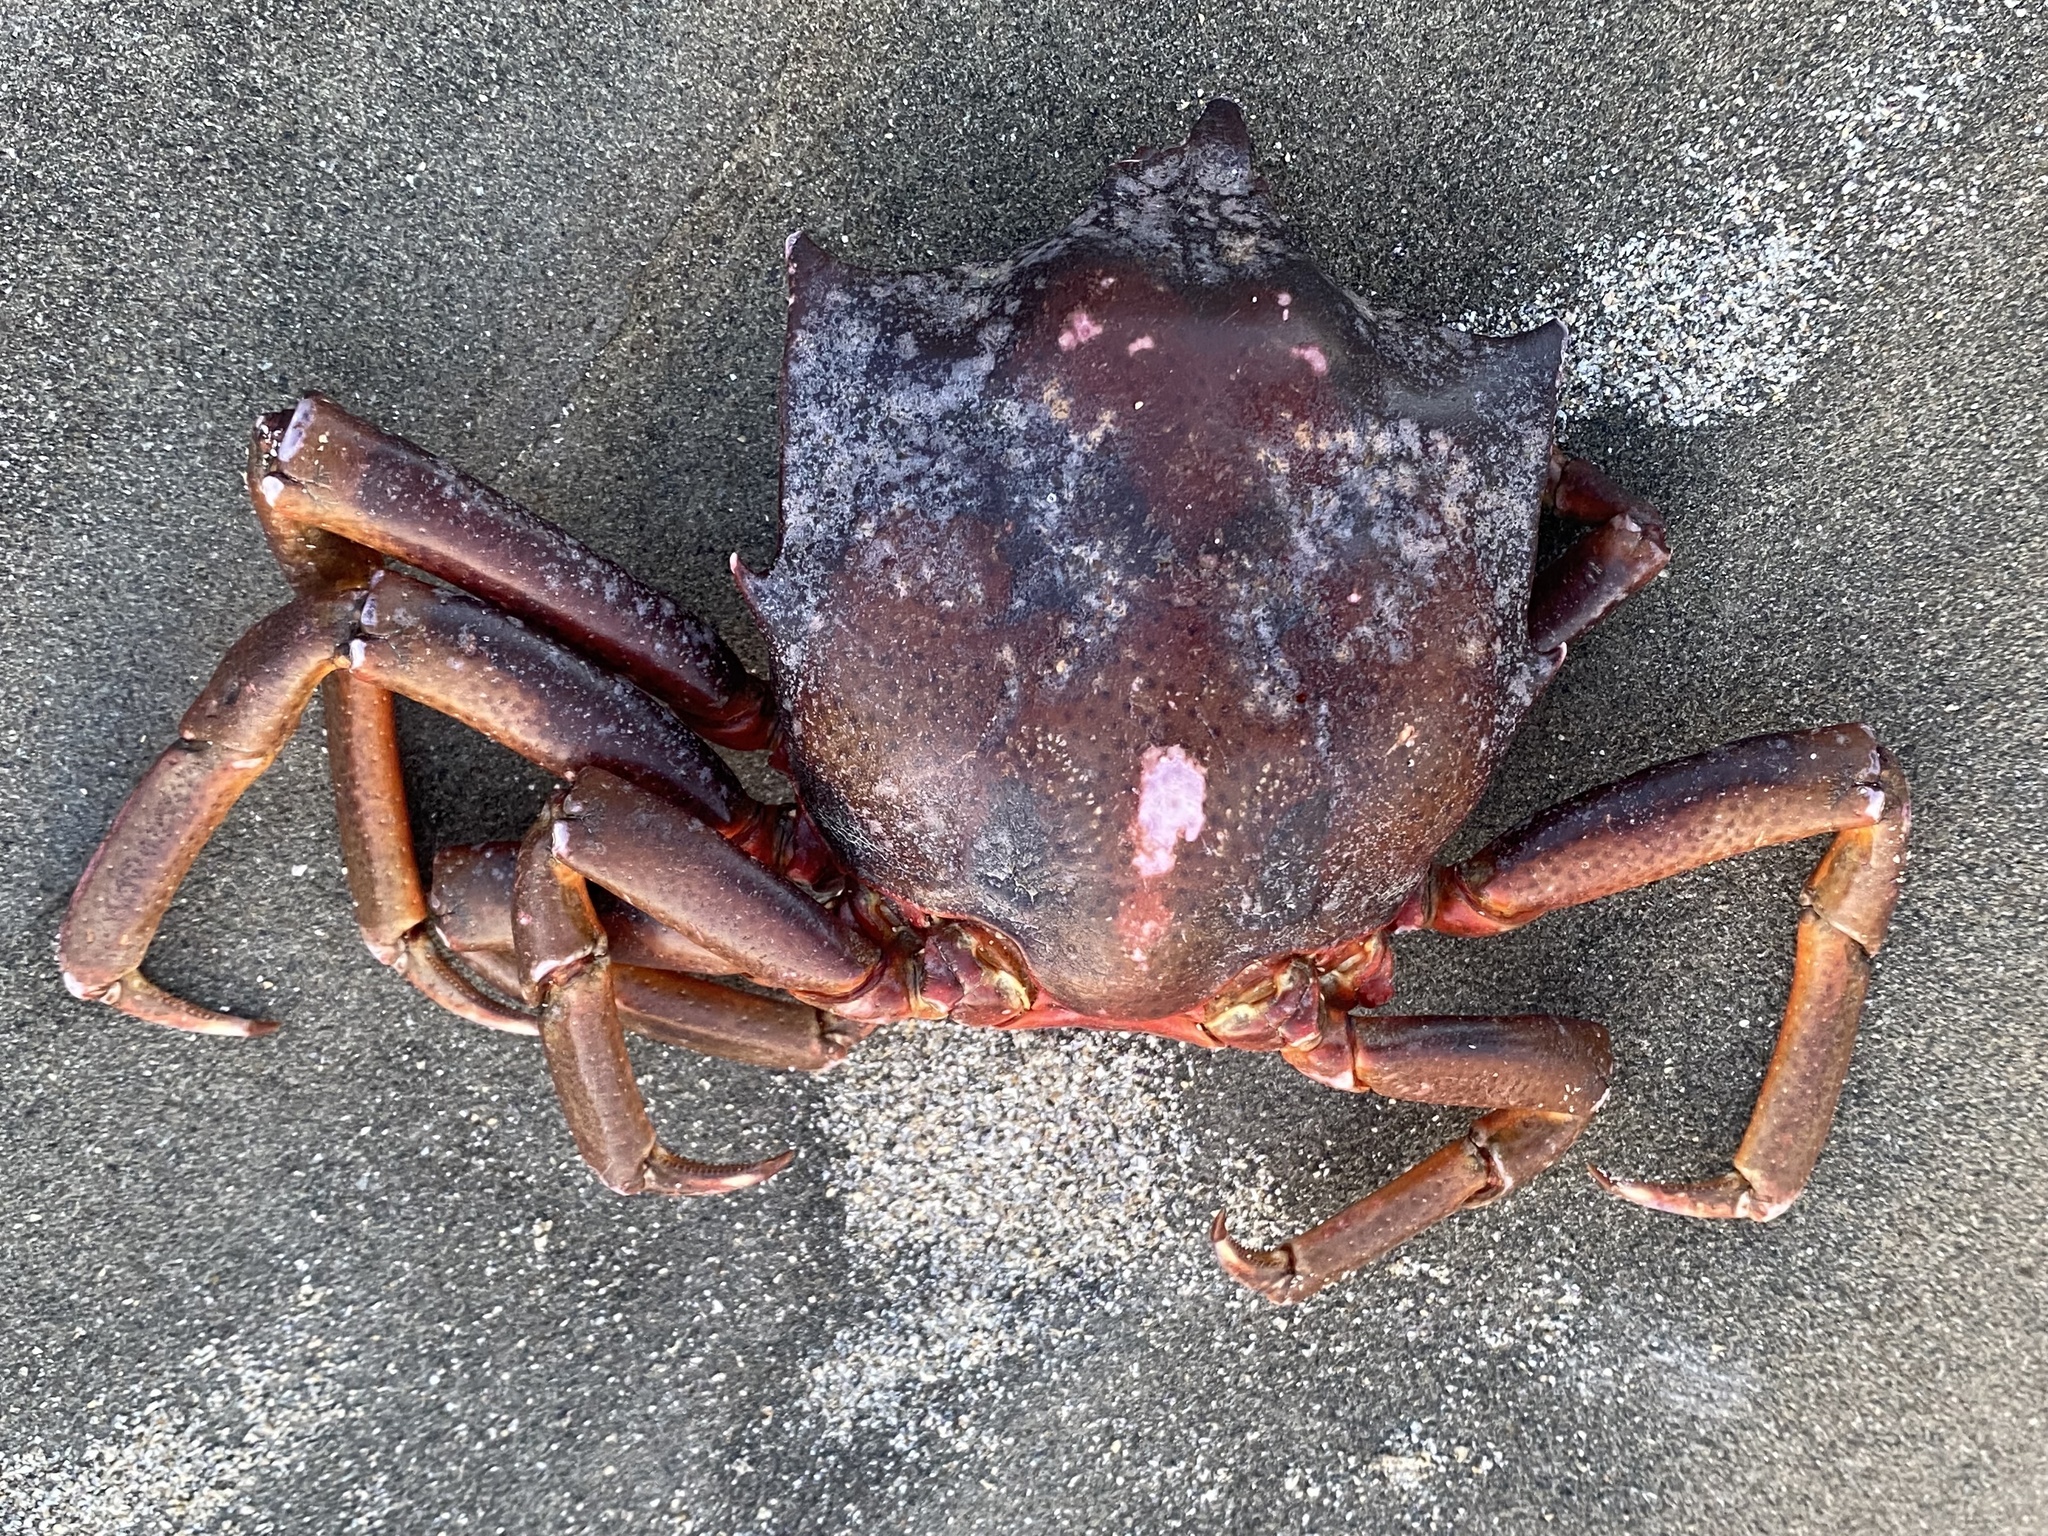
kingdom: Animalia
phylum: Arthropoda
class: Malacostraca
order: Decapoda
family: Epialtidae
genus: Pugettia
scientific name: Pugettia producta
